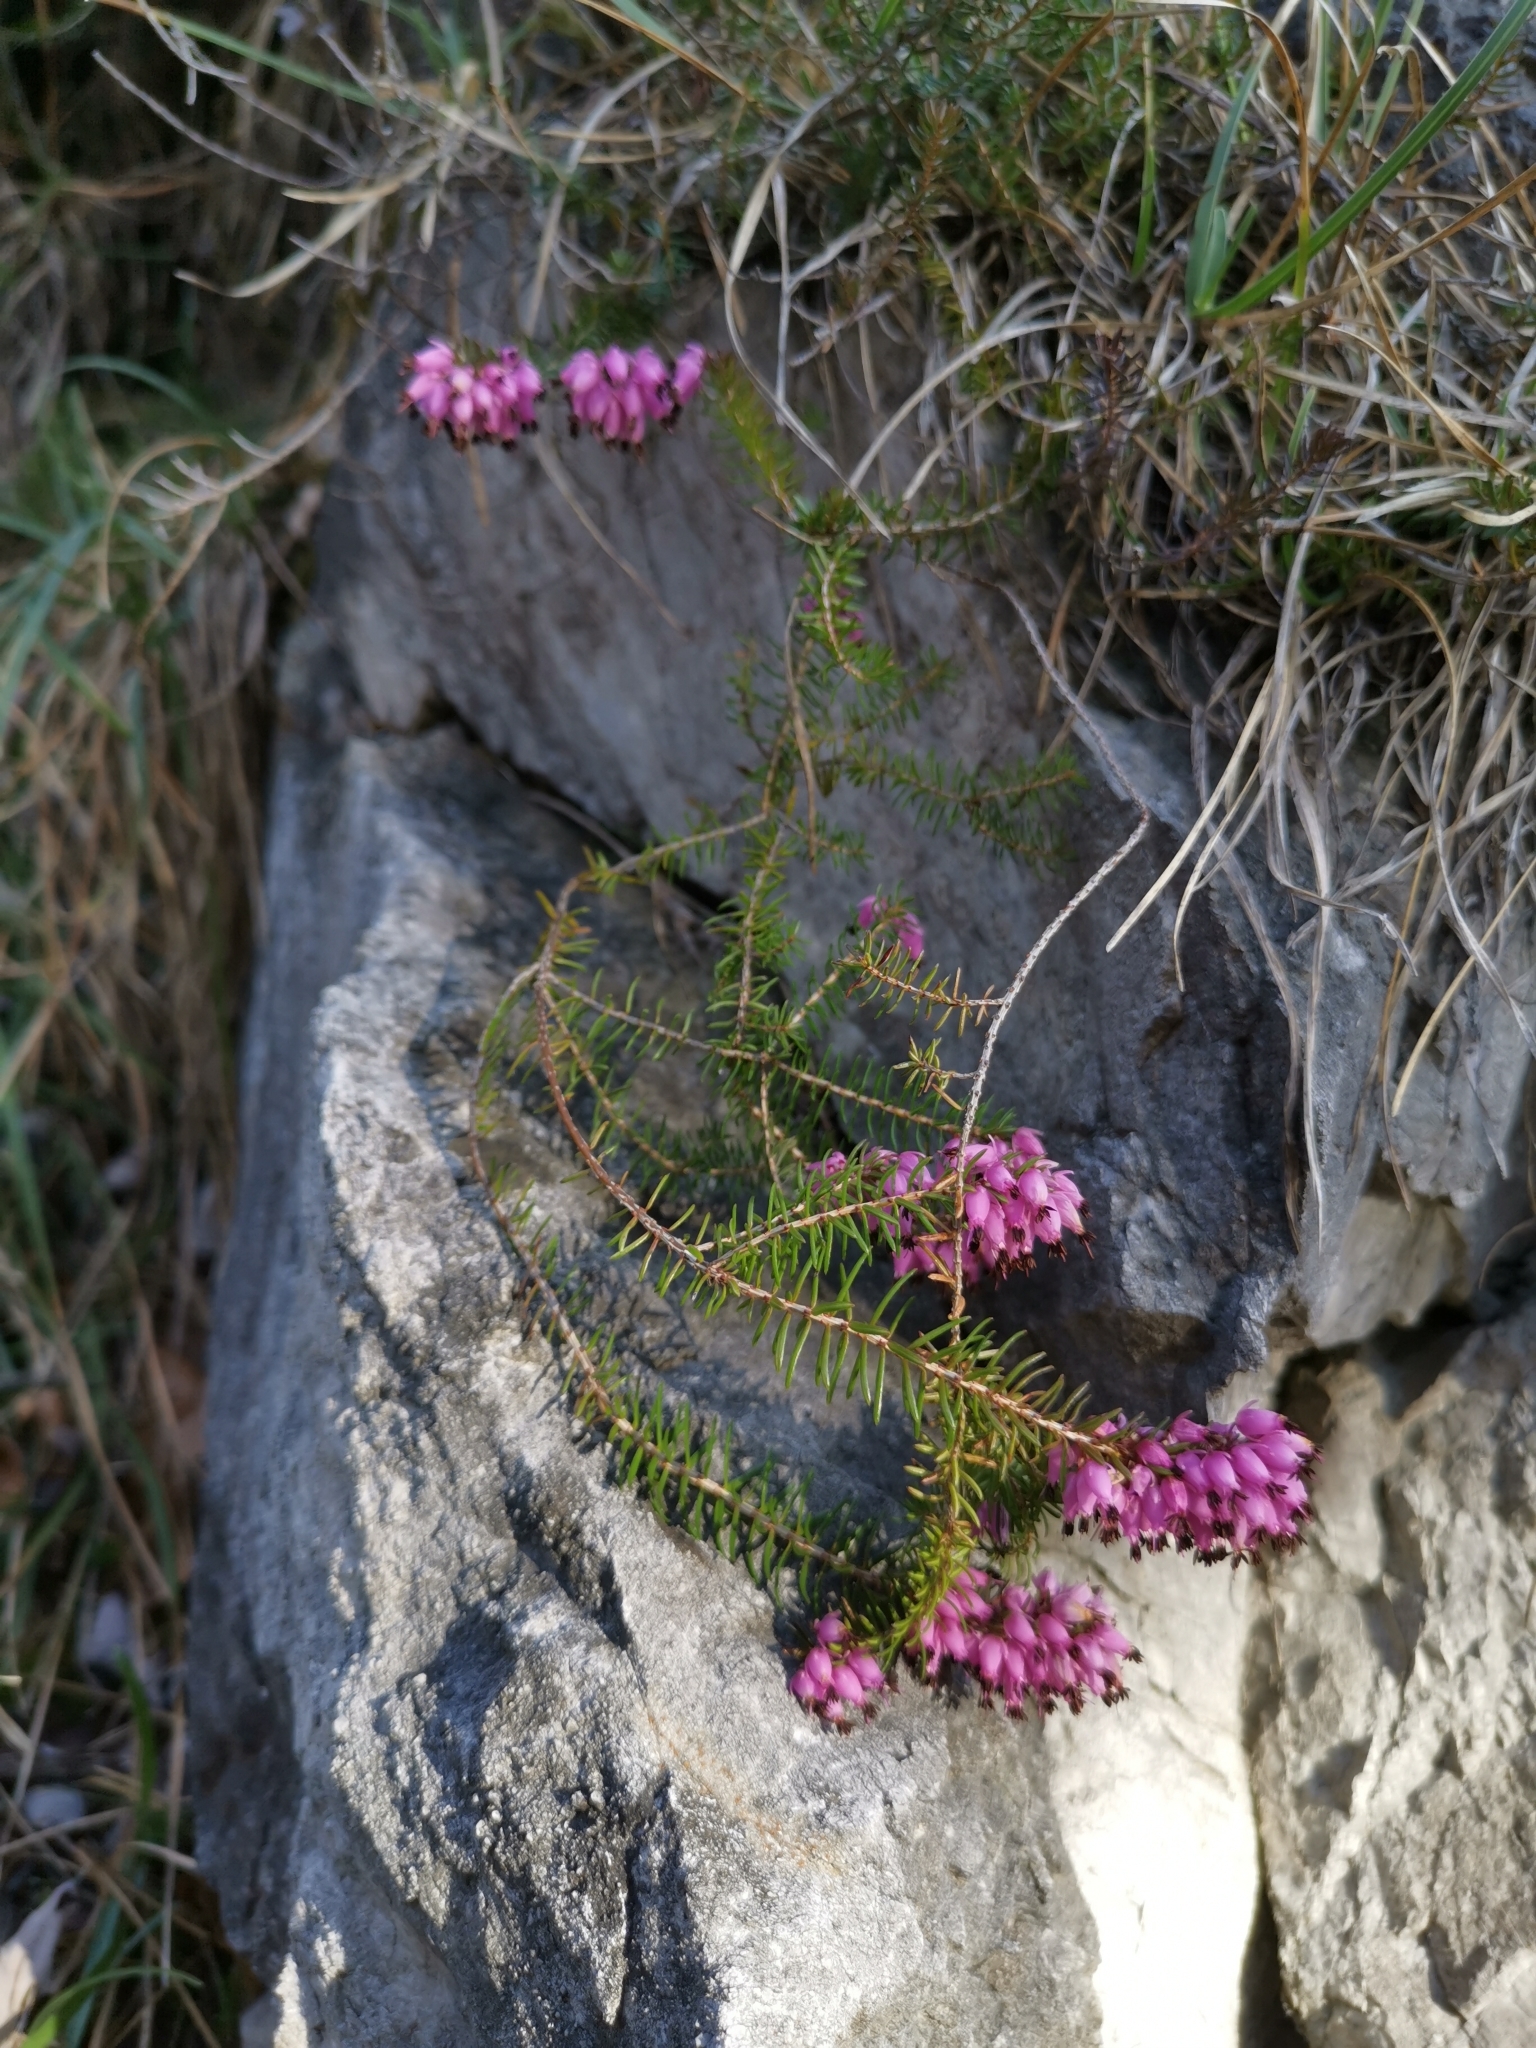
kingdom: Plantae
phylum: Tracheophyta
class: Magnoliopsida
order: Ericales
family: Ericaceae
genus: Erica
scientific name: Erica carnea
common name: Winter heath
